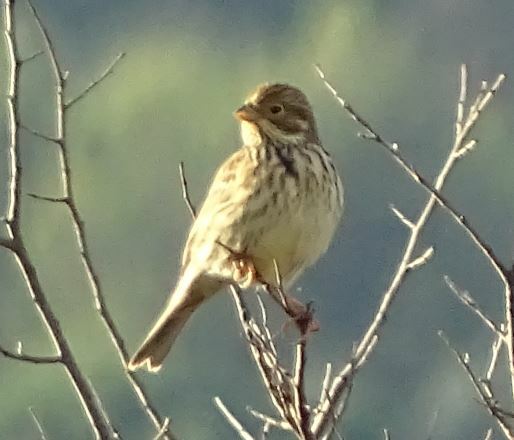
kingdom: Animalia
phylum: Chordata
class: Aves
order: Passeriformes
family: Emberizidae
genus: Emberiza
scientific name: Emberiza calandra
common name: Corn bunting
